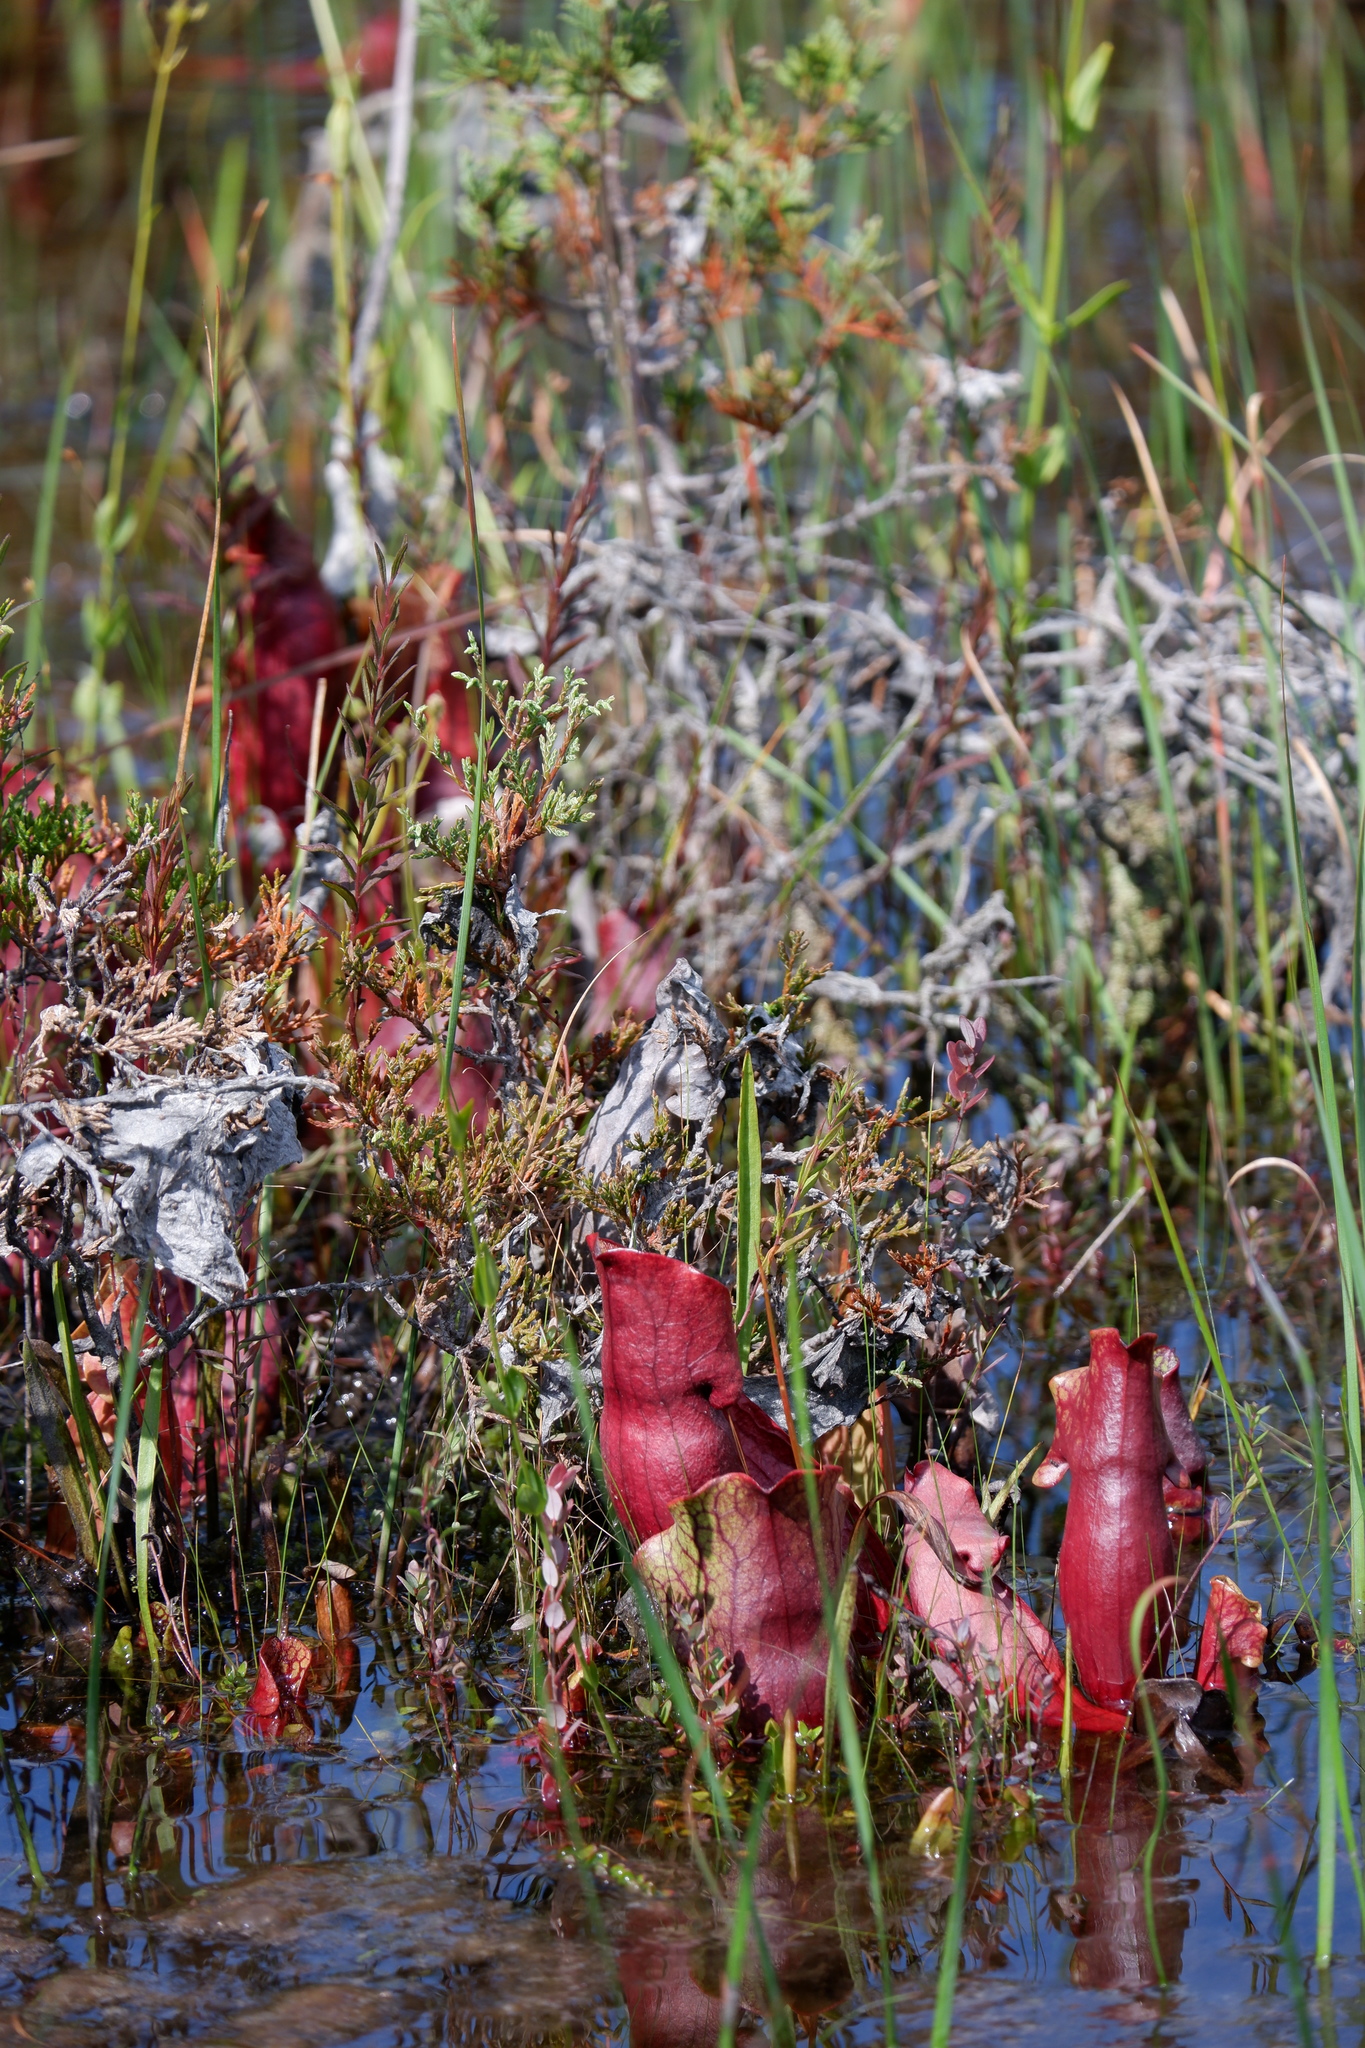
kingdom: Plantae
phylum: Tracheophyta
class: Magnoliopsida
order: Ericales
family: Sarraceniaceae
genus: Sarracenia
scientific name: Sarracenia purpurea
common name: Pitcherplant
